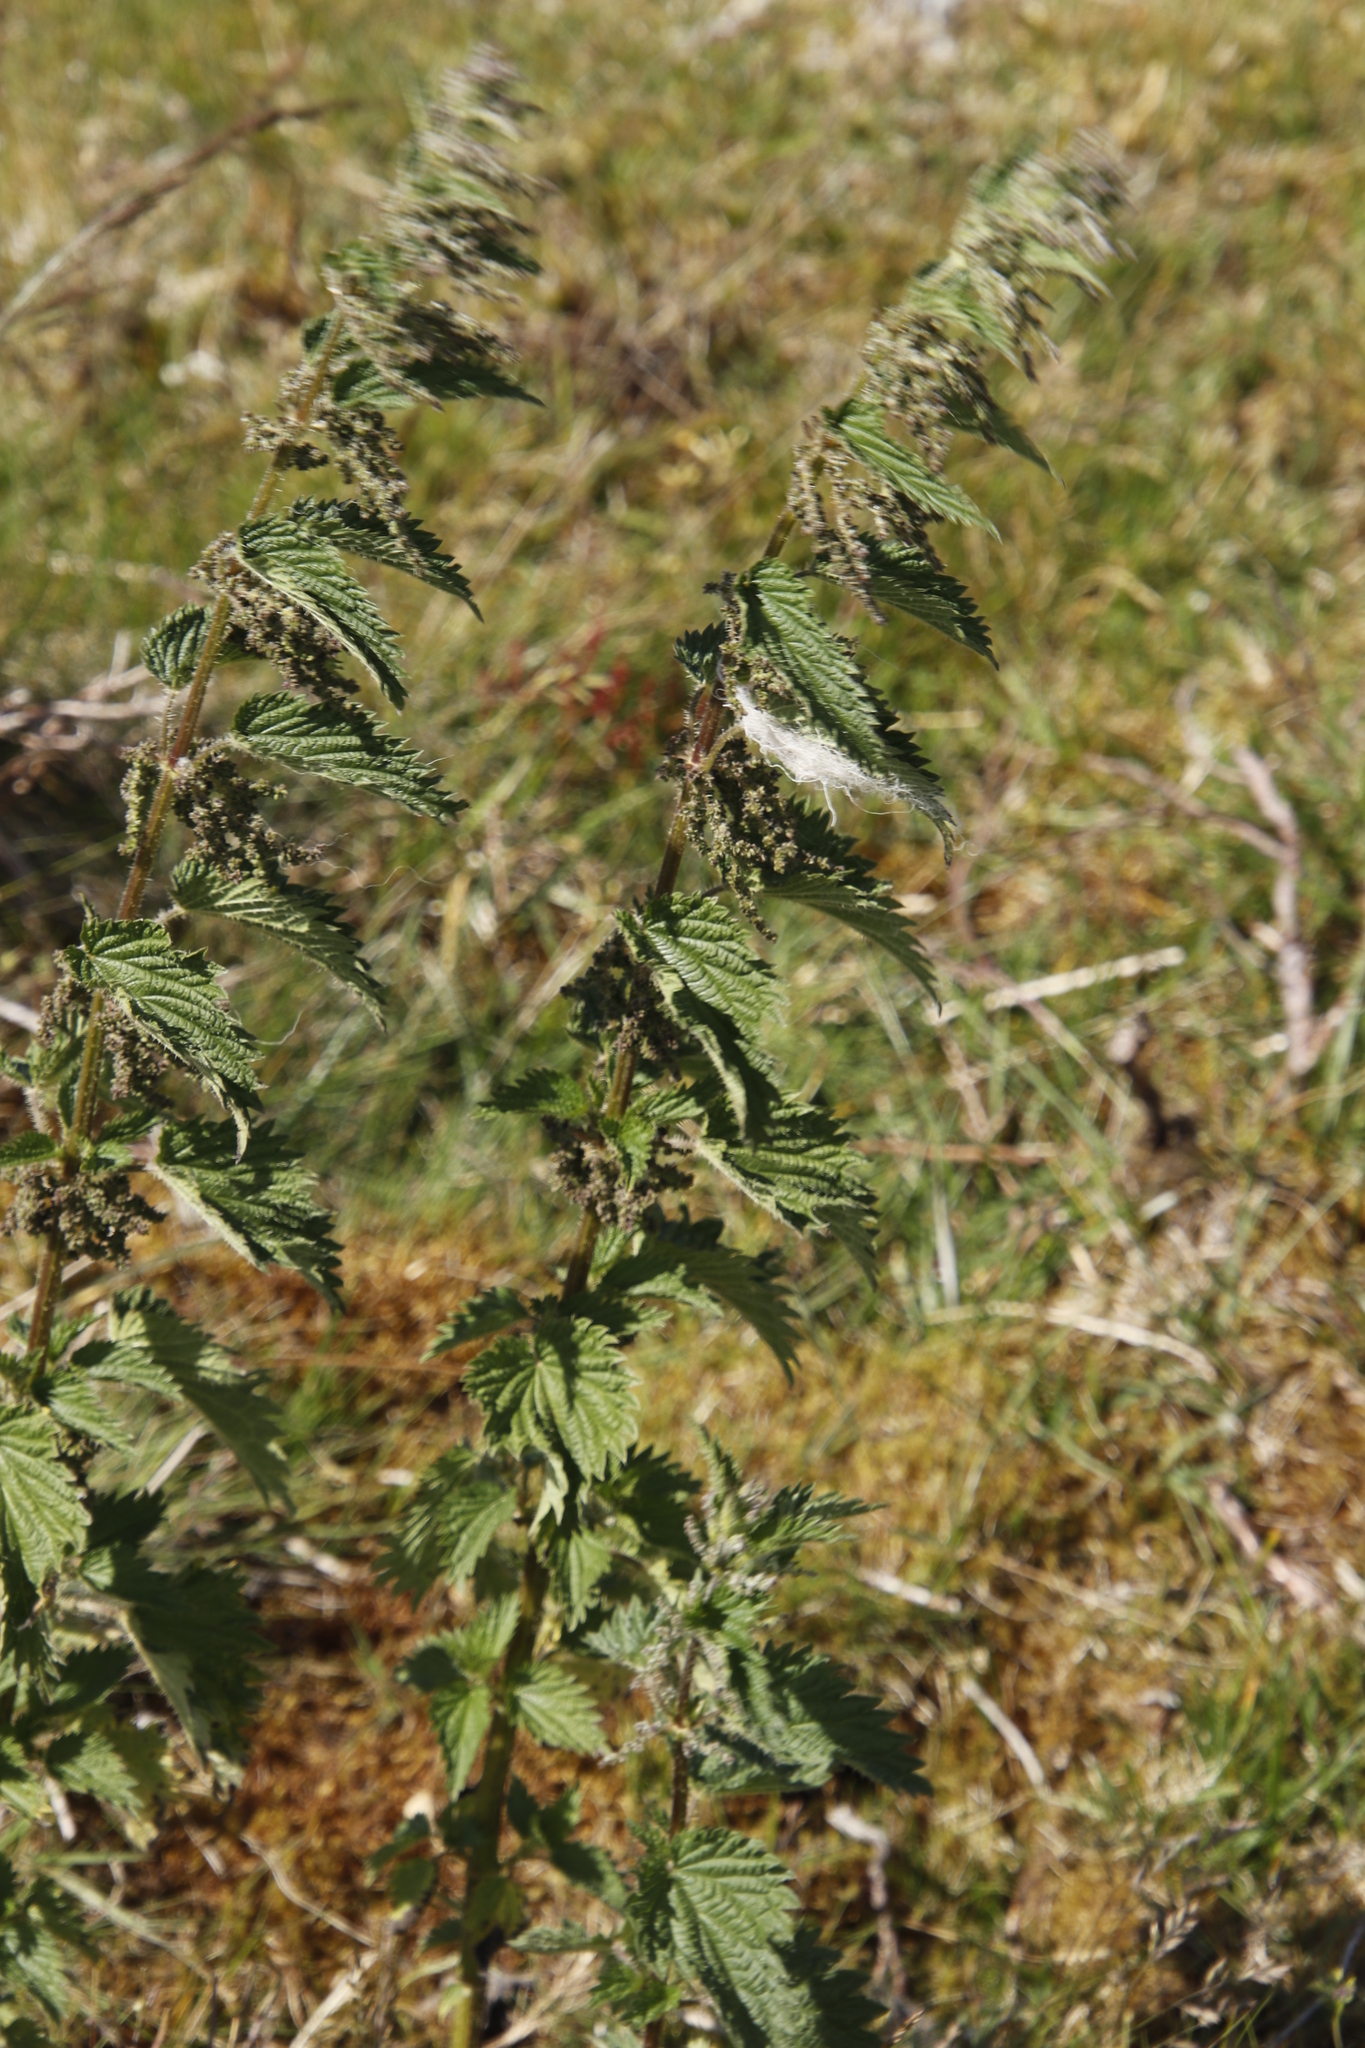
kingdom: Plantae
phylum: Tracheophyta
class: Magnoliopsida
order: Rosales
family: Urticaceae
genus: Urtica
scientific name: Urtica dioica
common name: Common nettle
